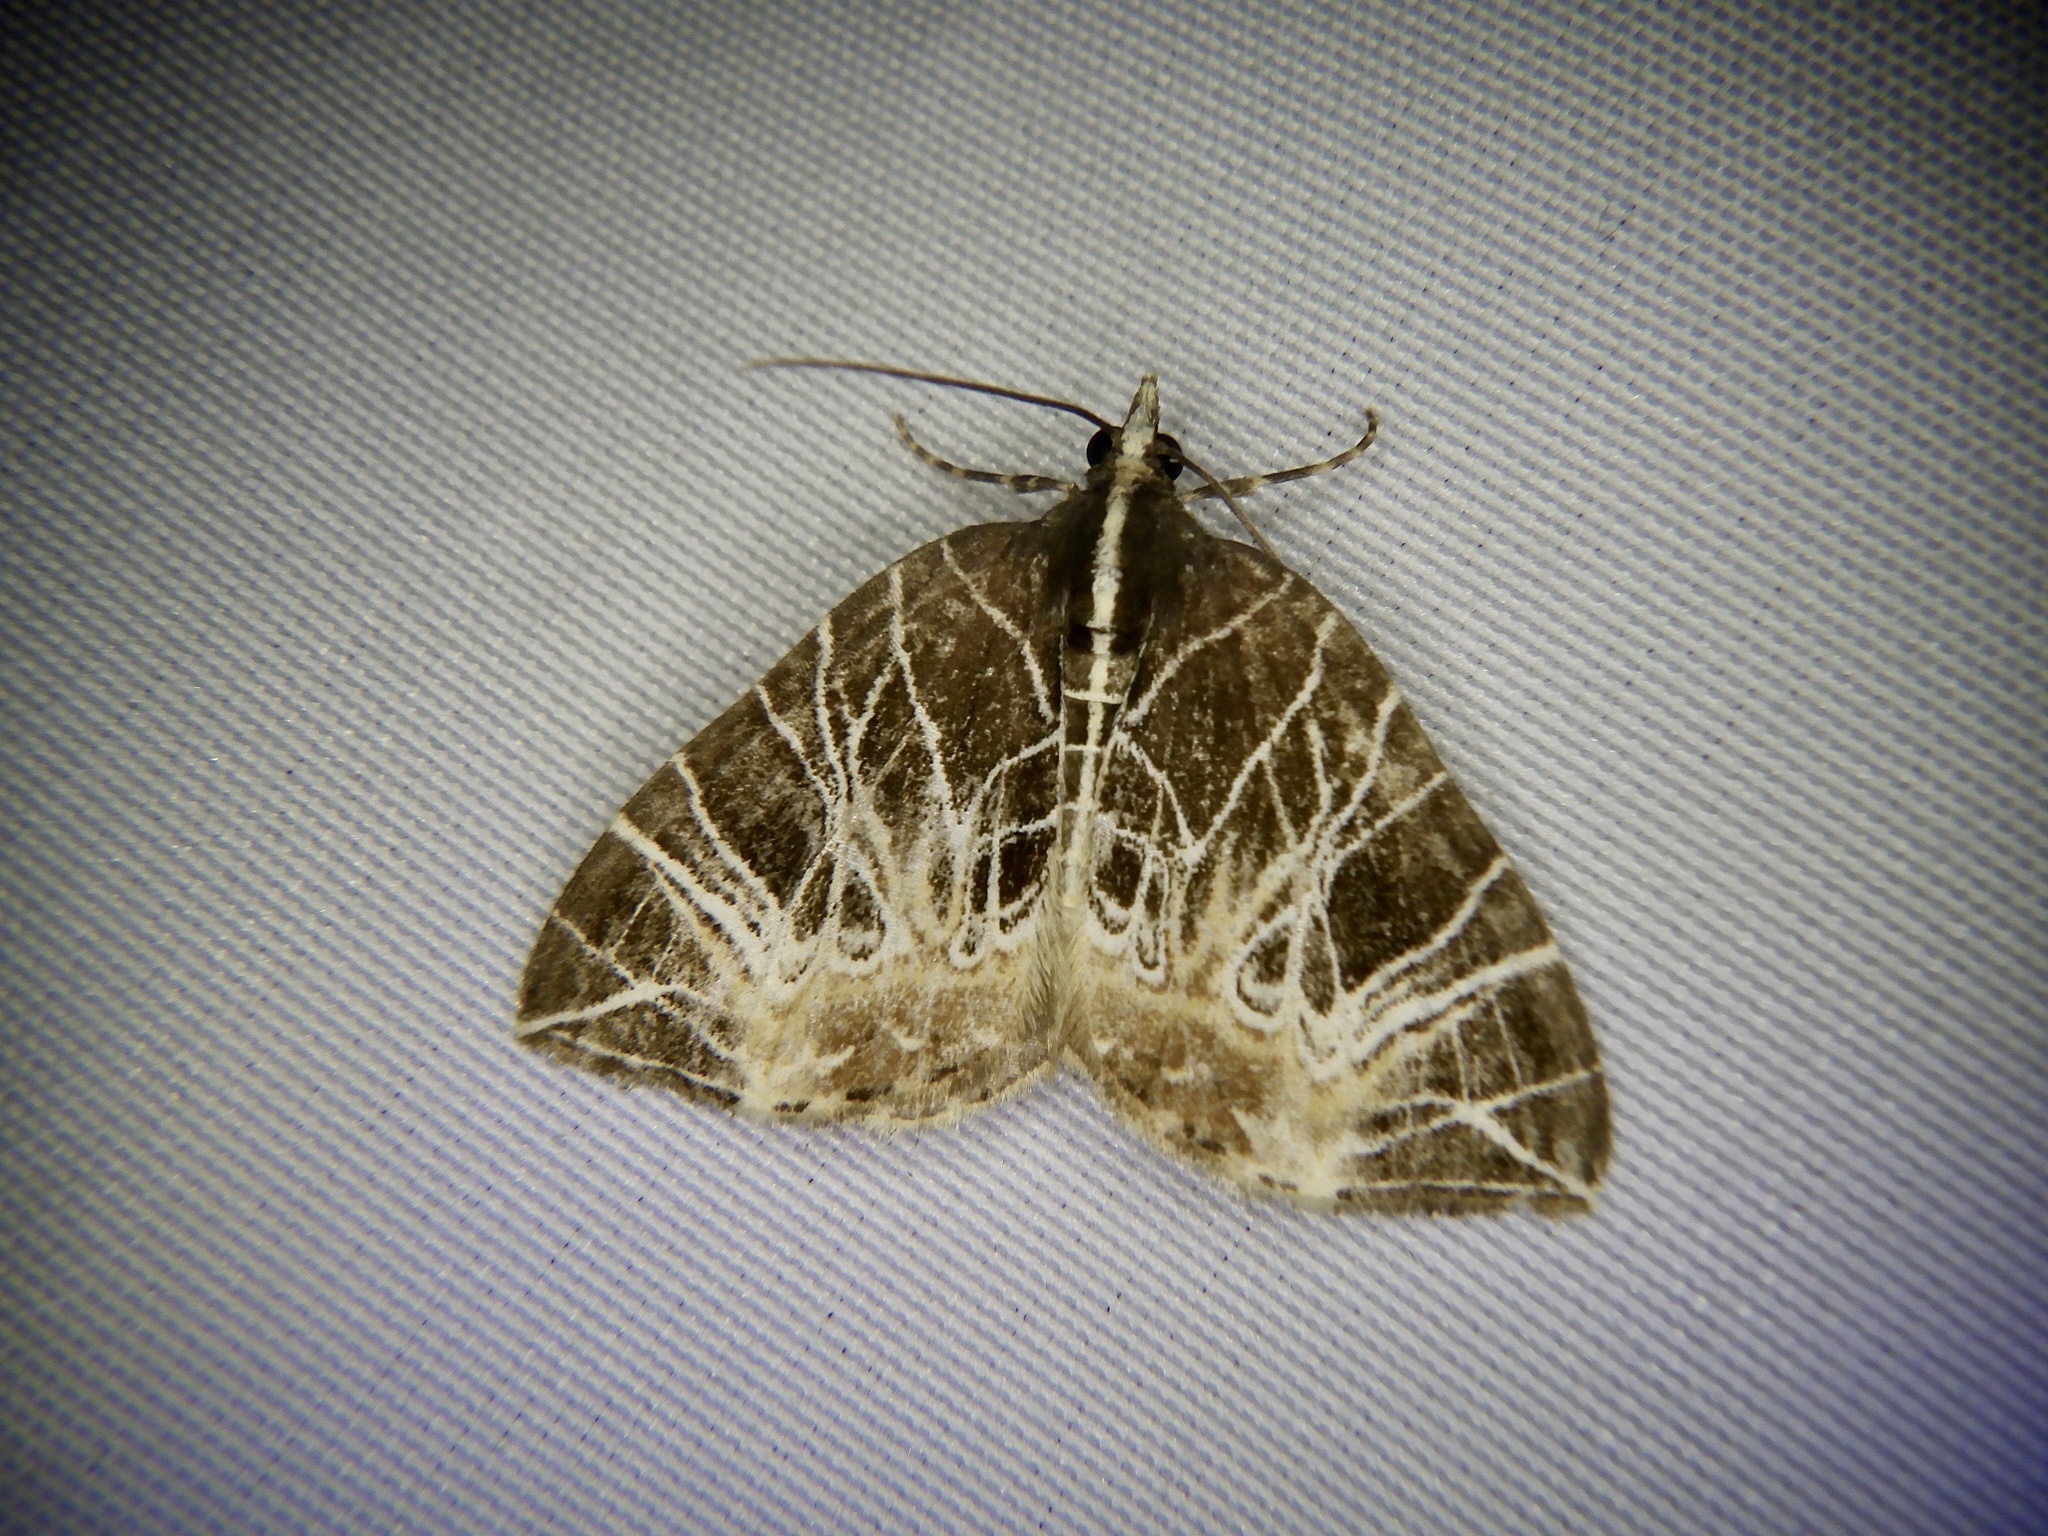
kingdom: Animalia
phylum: Arthropoda
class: Insecta
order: Lepidoptera
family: Geometridae
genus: Evecliptopera
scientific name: Evecliptopera illitata
